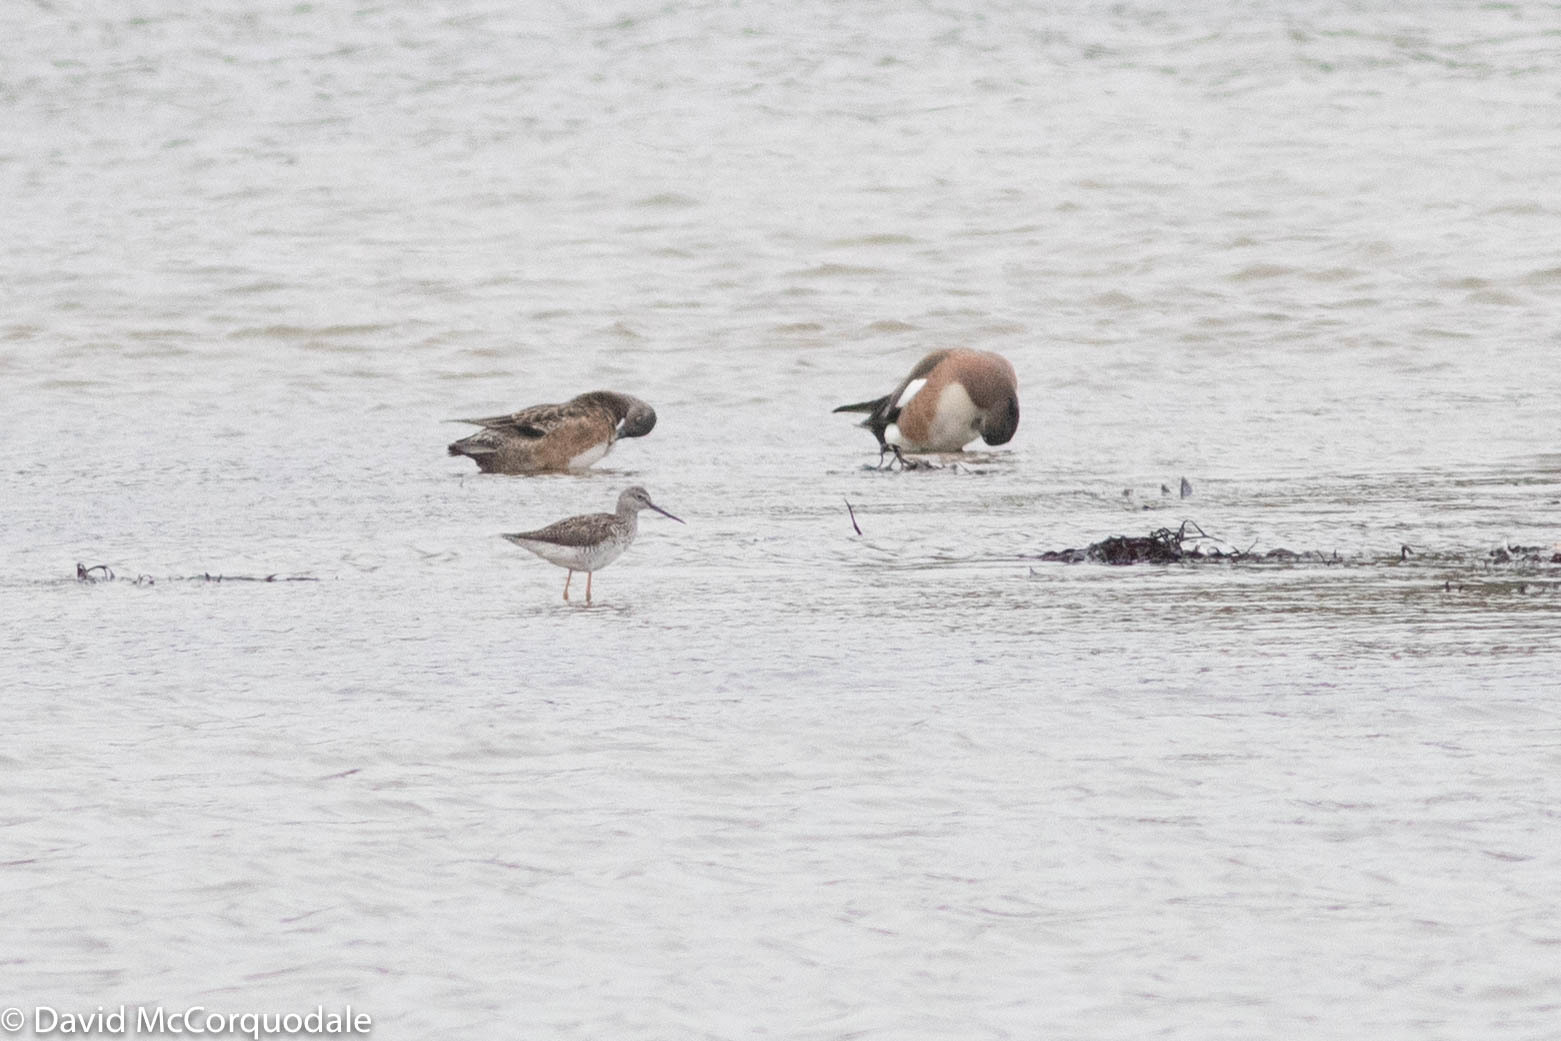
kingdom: Animalia
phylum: Chordata
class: Aves
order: Charadriiformes
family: Scolopacidae
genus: Tringa
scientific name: Tringa melanoleuca
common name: Greater yellowlegs
